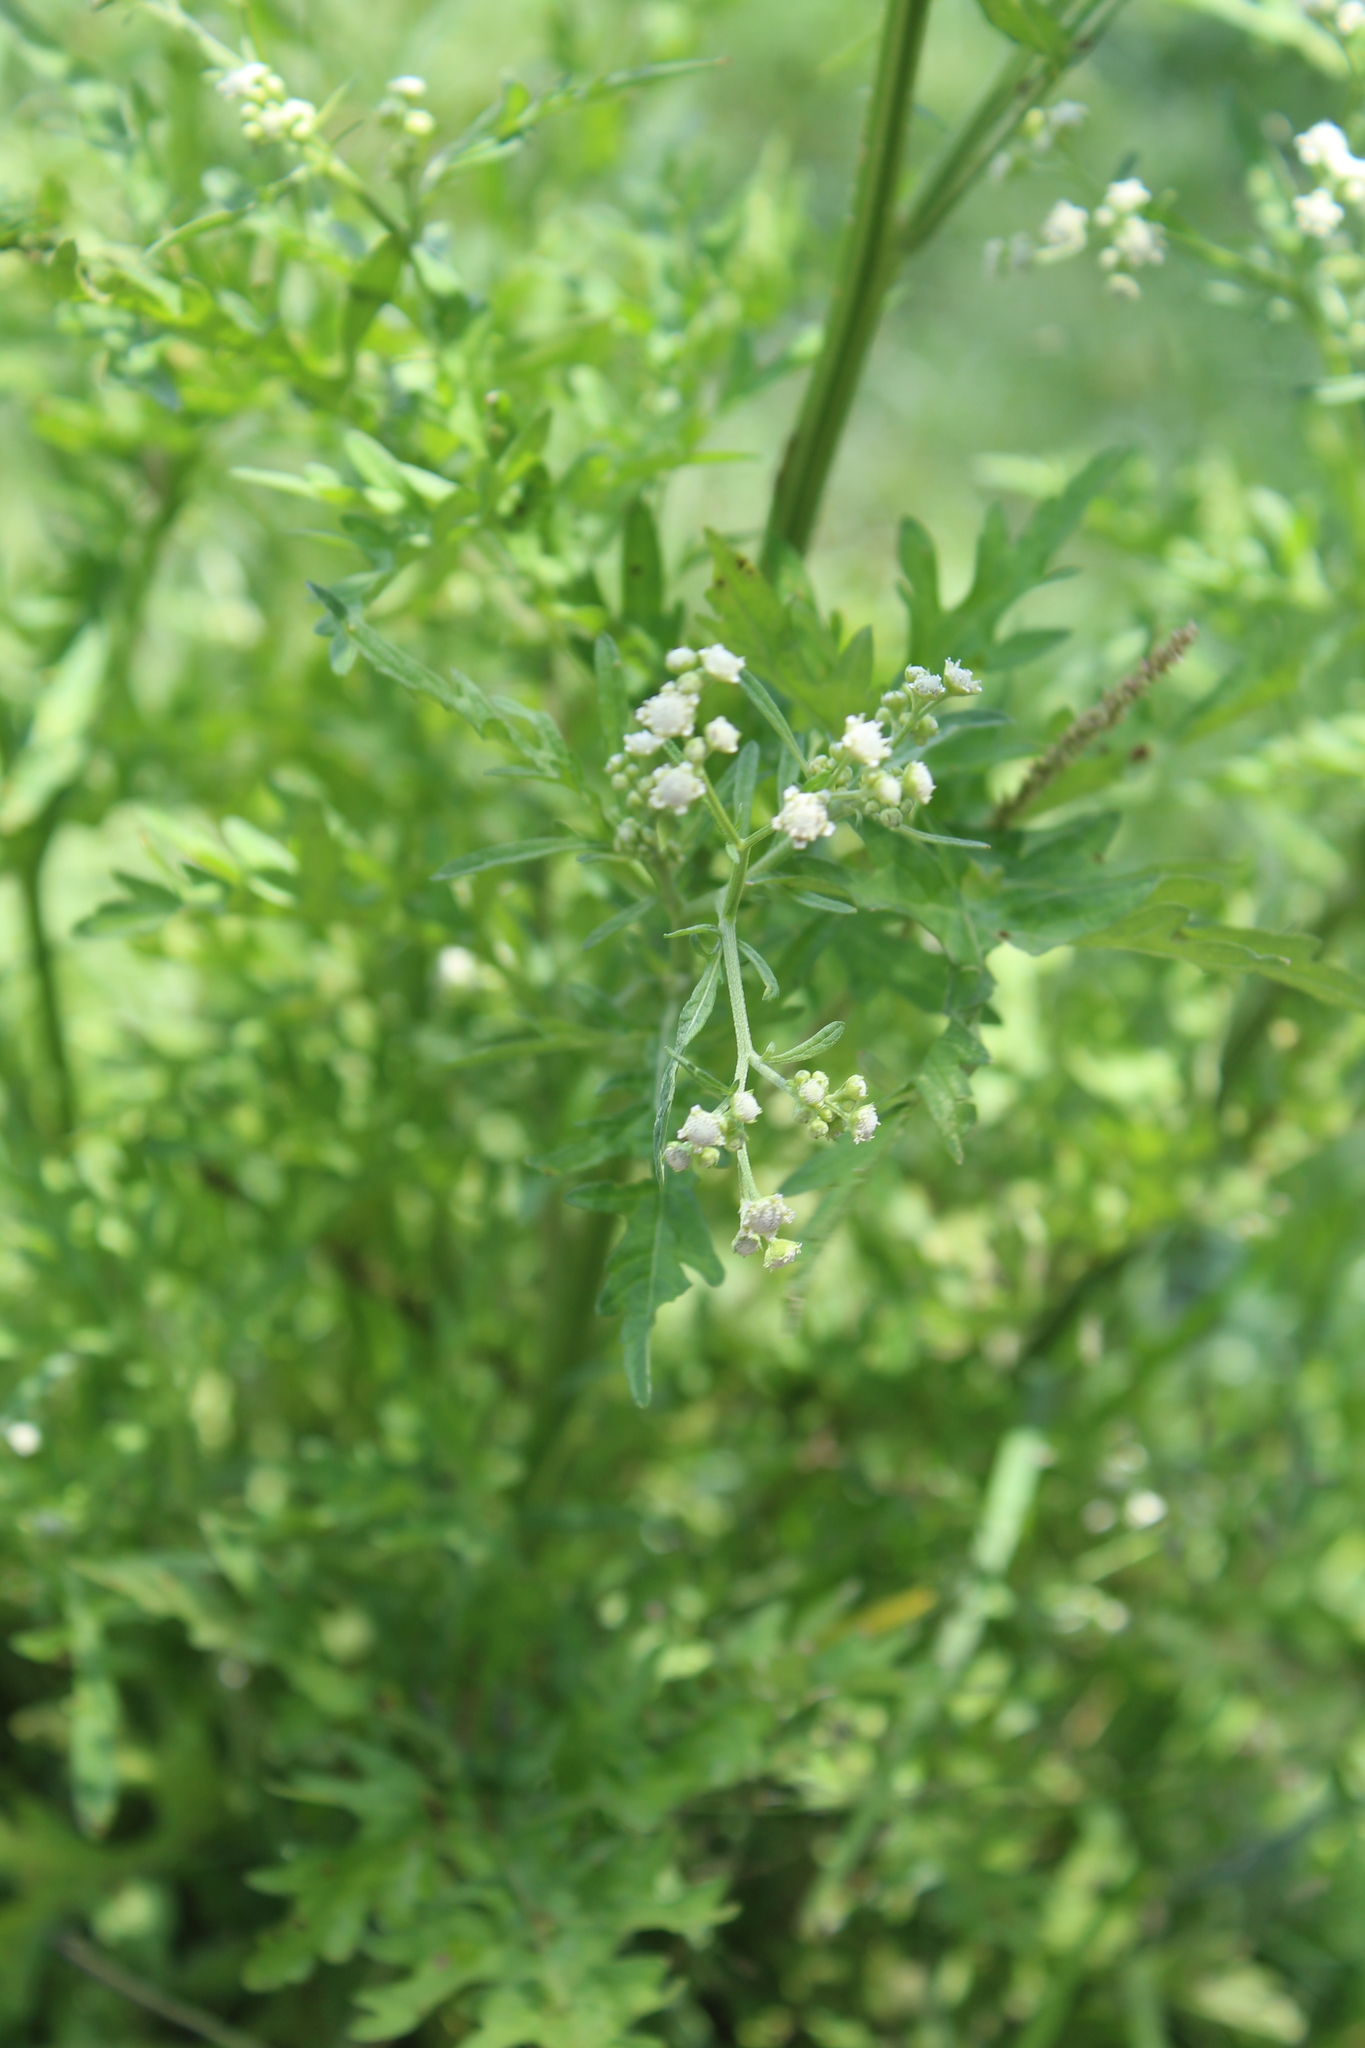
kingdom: Plantae
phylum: Tracheophyta
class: Magnoliopsida
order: Asterales
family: Asteraceae
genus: Parthenium
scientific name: Parthenium hysterophorus
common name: Santa maria feverfew
